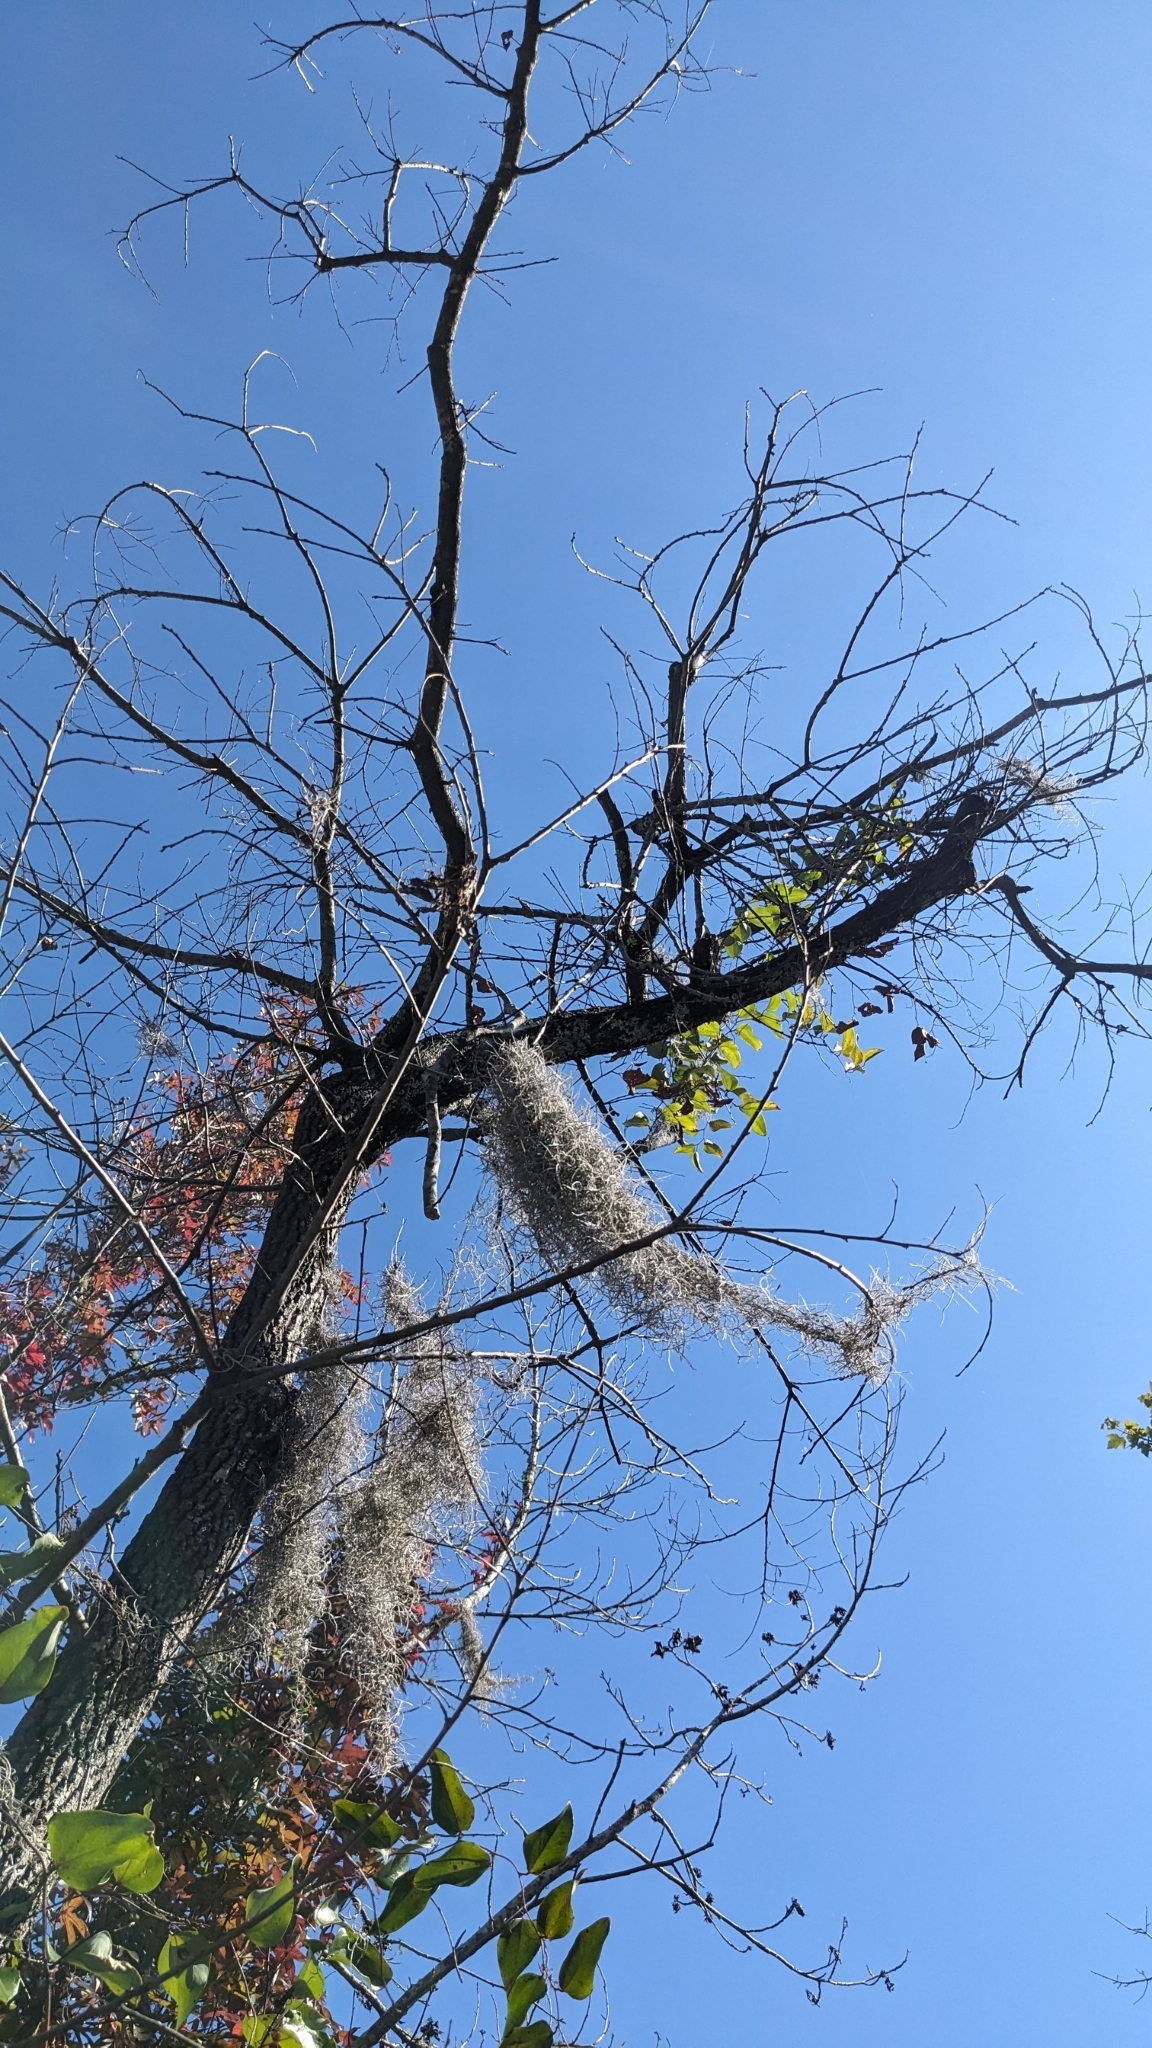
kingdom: Plantae
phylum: Tracheophyta
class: Magnoliopsida
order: Ericales
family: Ebenaceae
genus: Diospyros
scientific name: Diospyros virginiana
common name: Persimmon
